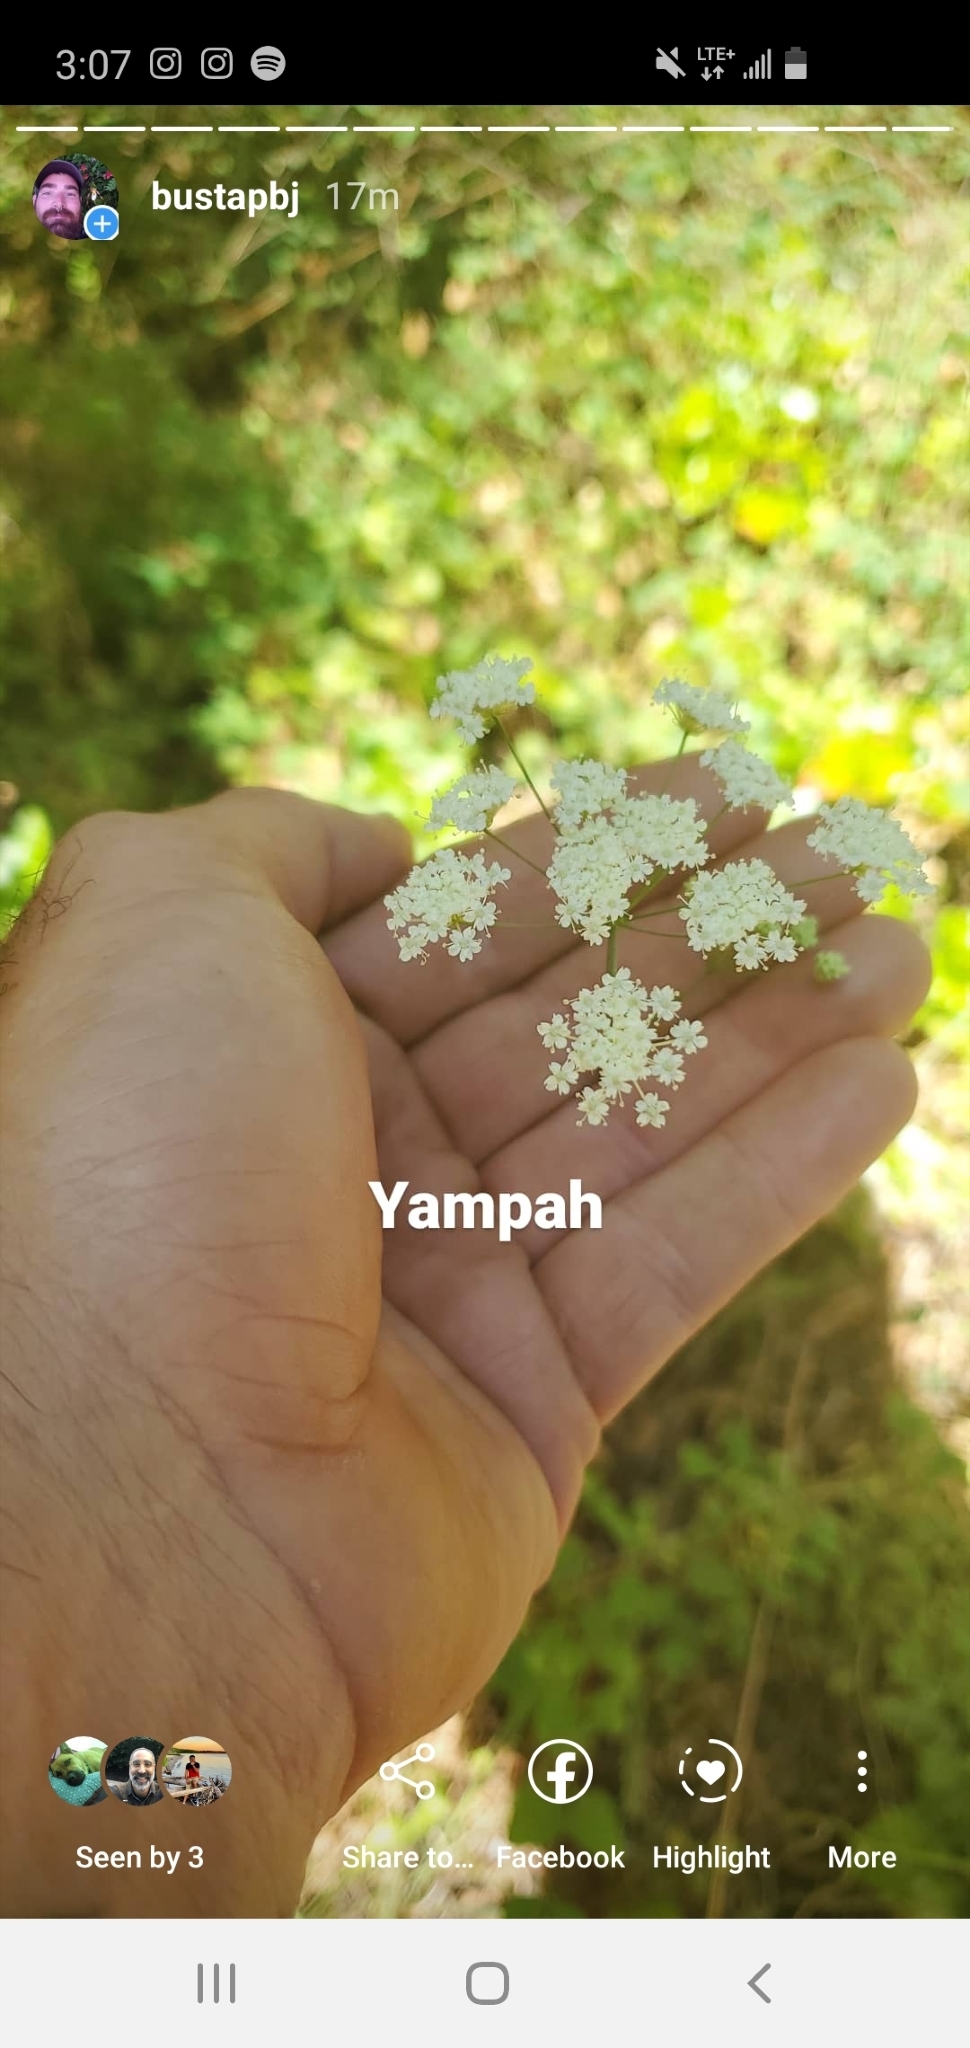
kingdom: Plantae
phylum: Tracheophyta
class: Magnoliopsida
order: Apiales
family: Apiaceae
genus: Perideridia
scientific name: Perideridia gairdneri
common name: False caraway
